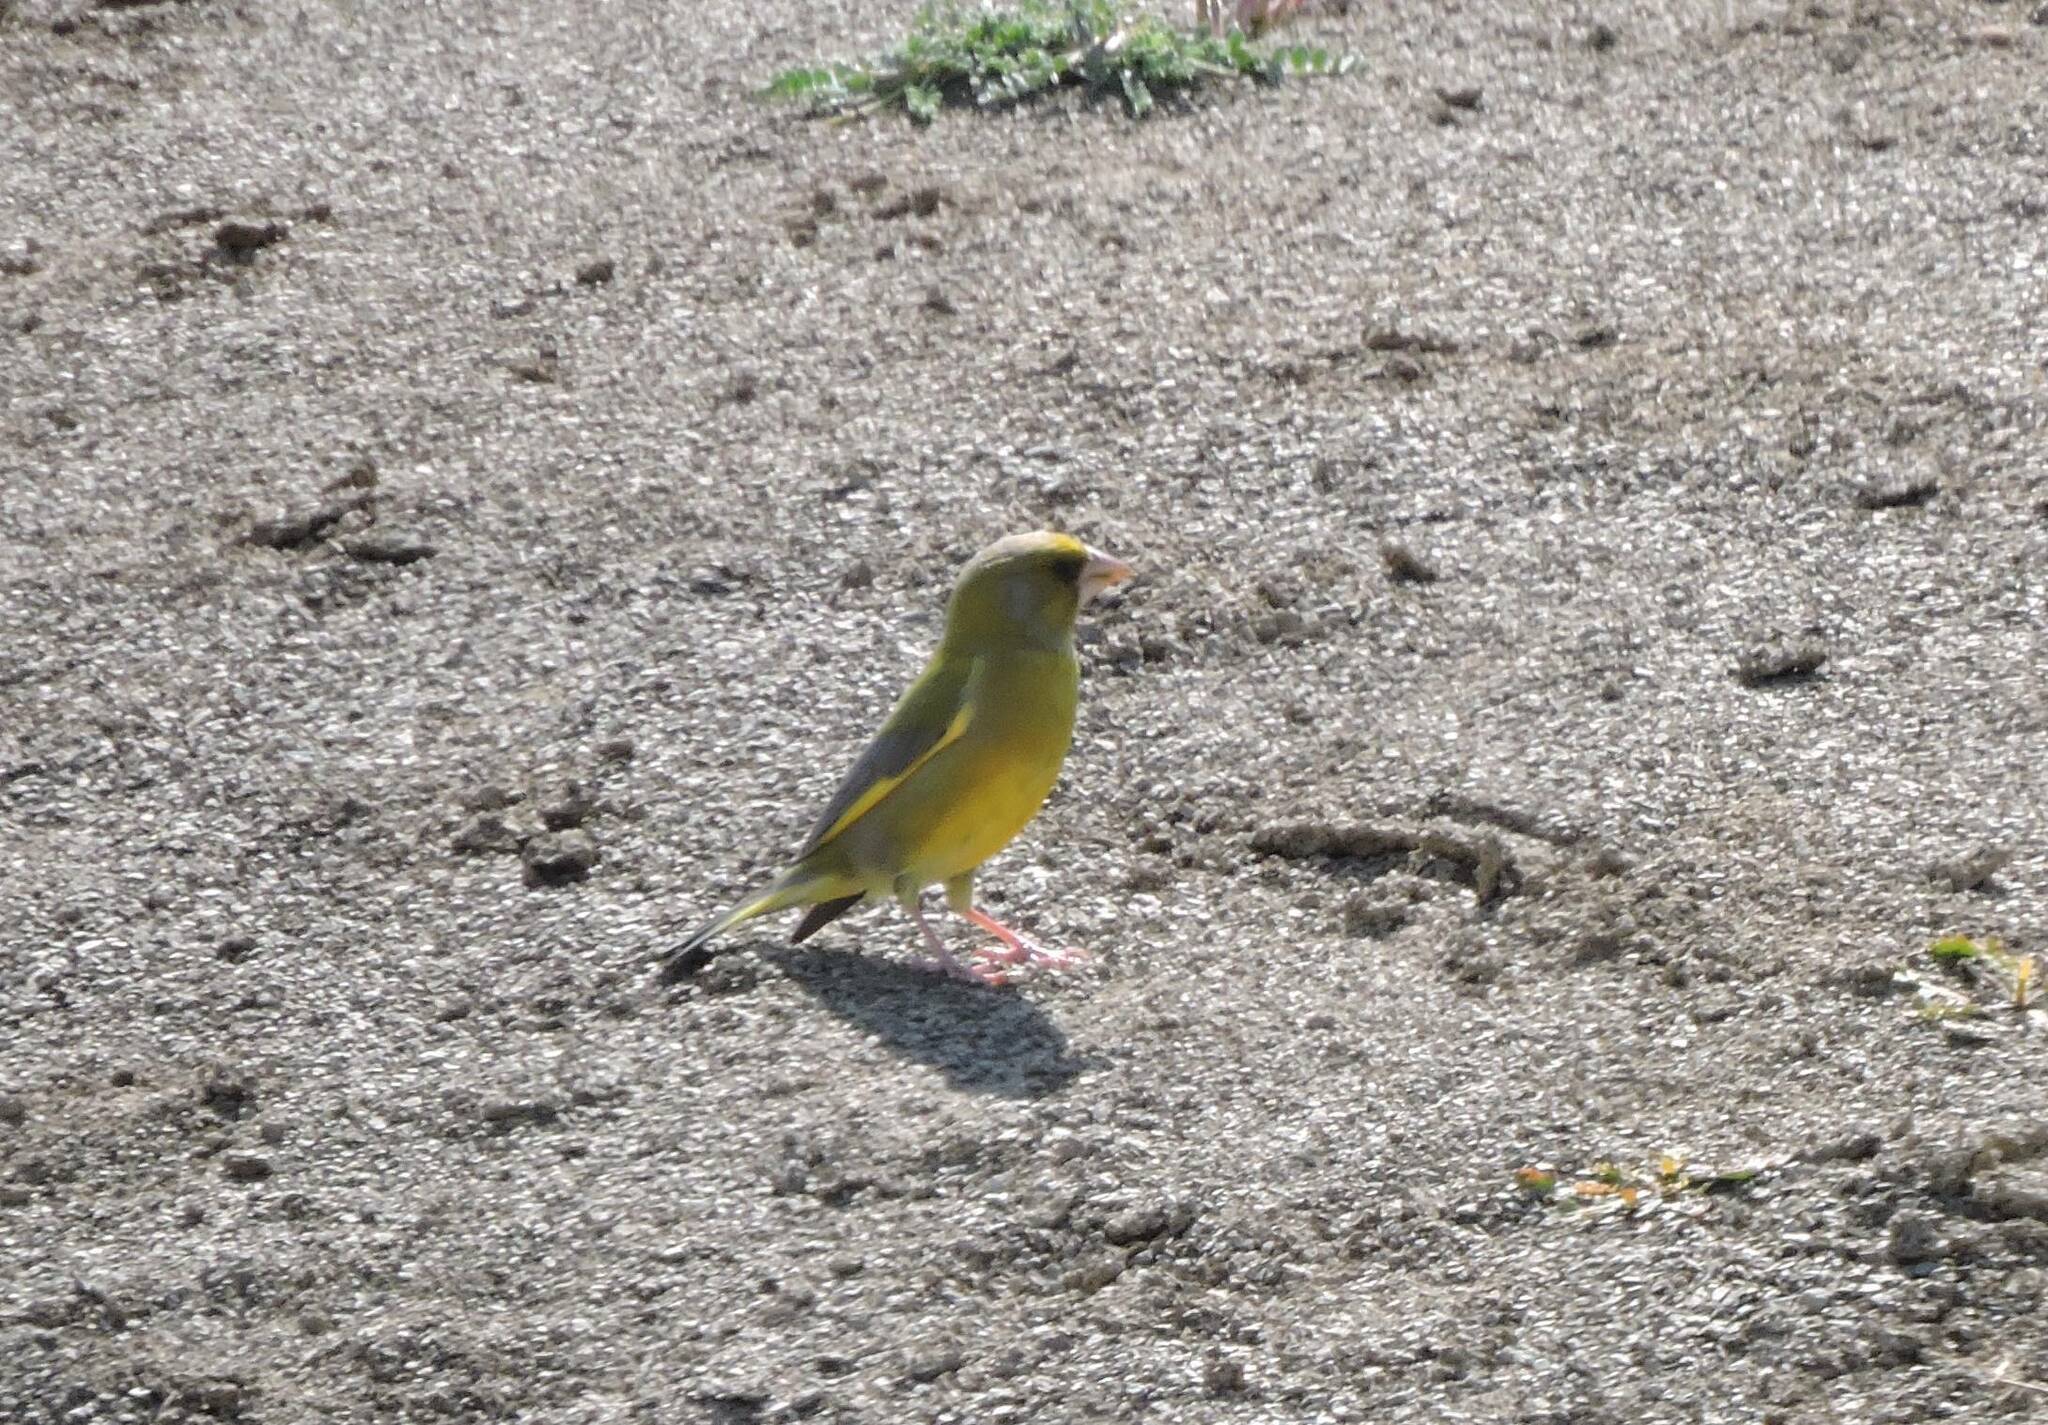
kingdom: Plantae
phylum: Tracheophyta
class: Liliopsida
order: Poales
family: Poaceae
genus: Chloris
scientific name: Chloris chloris
